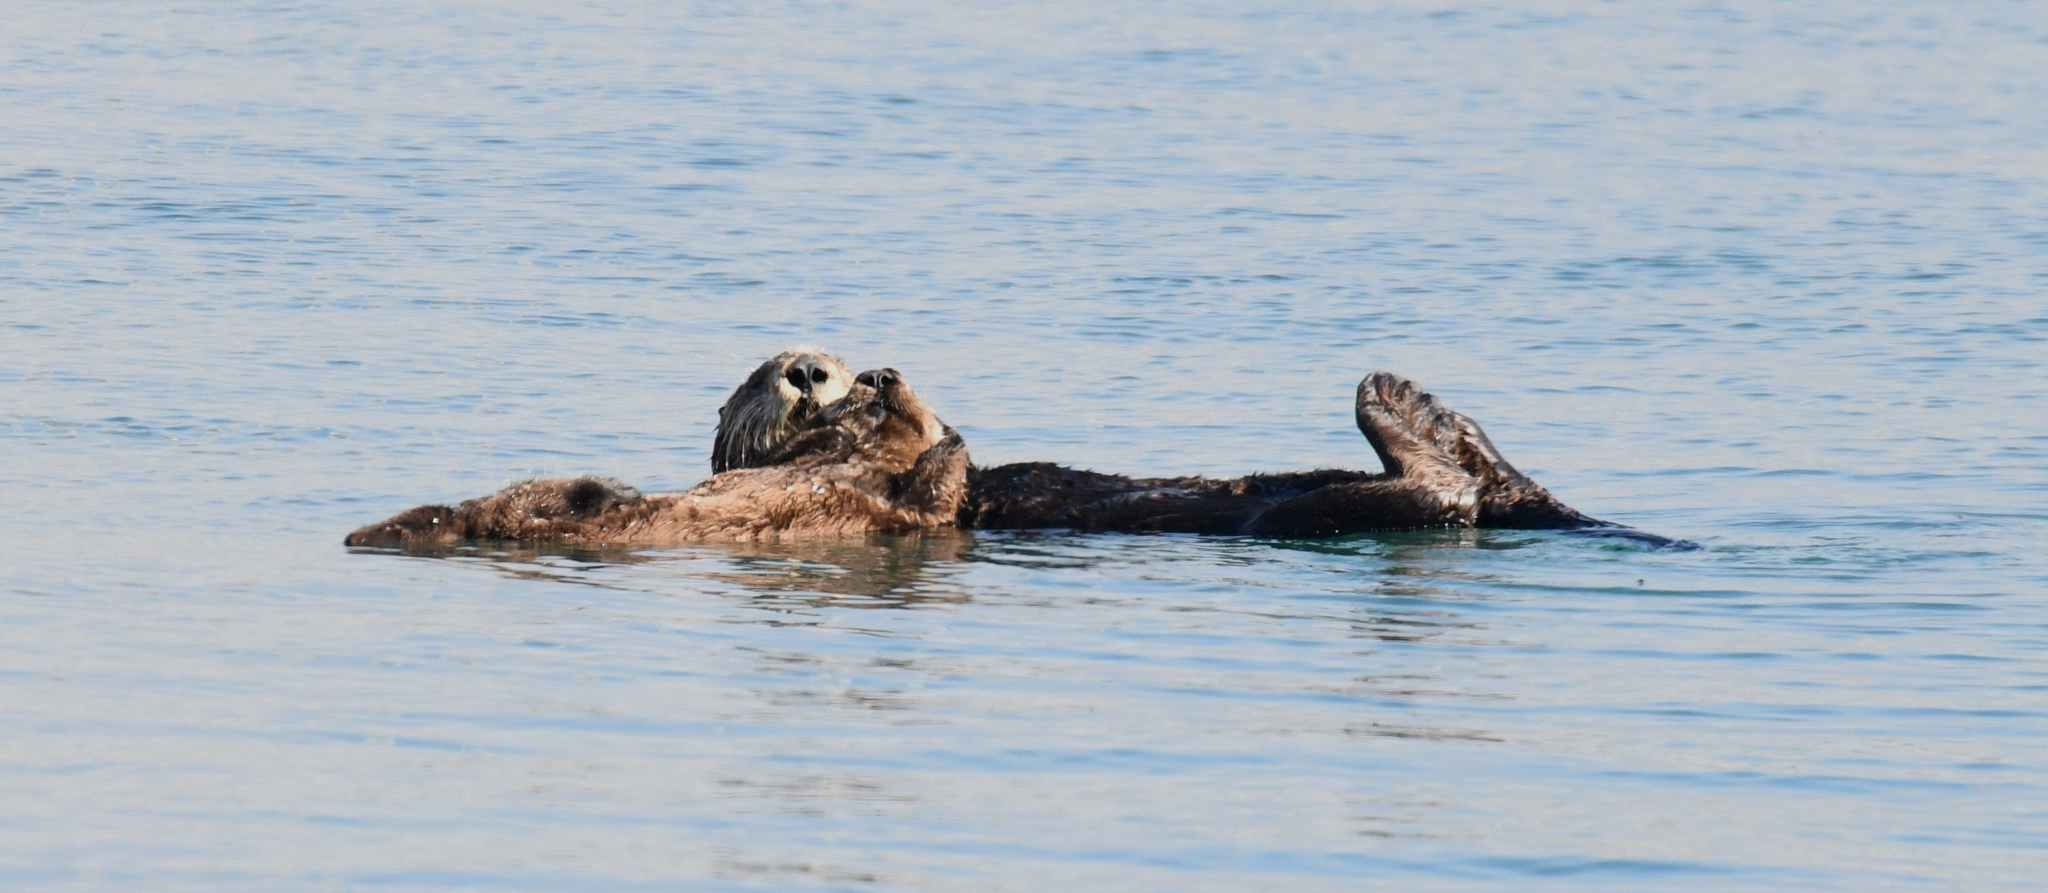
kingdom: Animalia
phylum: Chordata
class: Mammalia
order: Carnivora
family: Mustelidae
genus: Enhydra
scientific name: Enhydra lutris
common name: Sea otter
